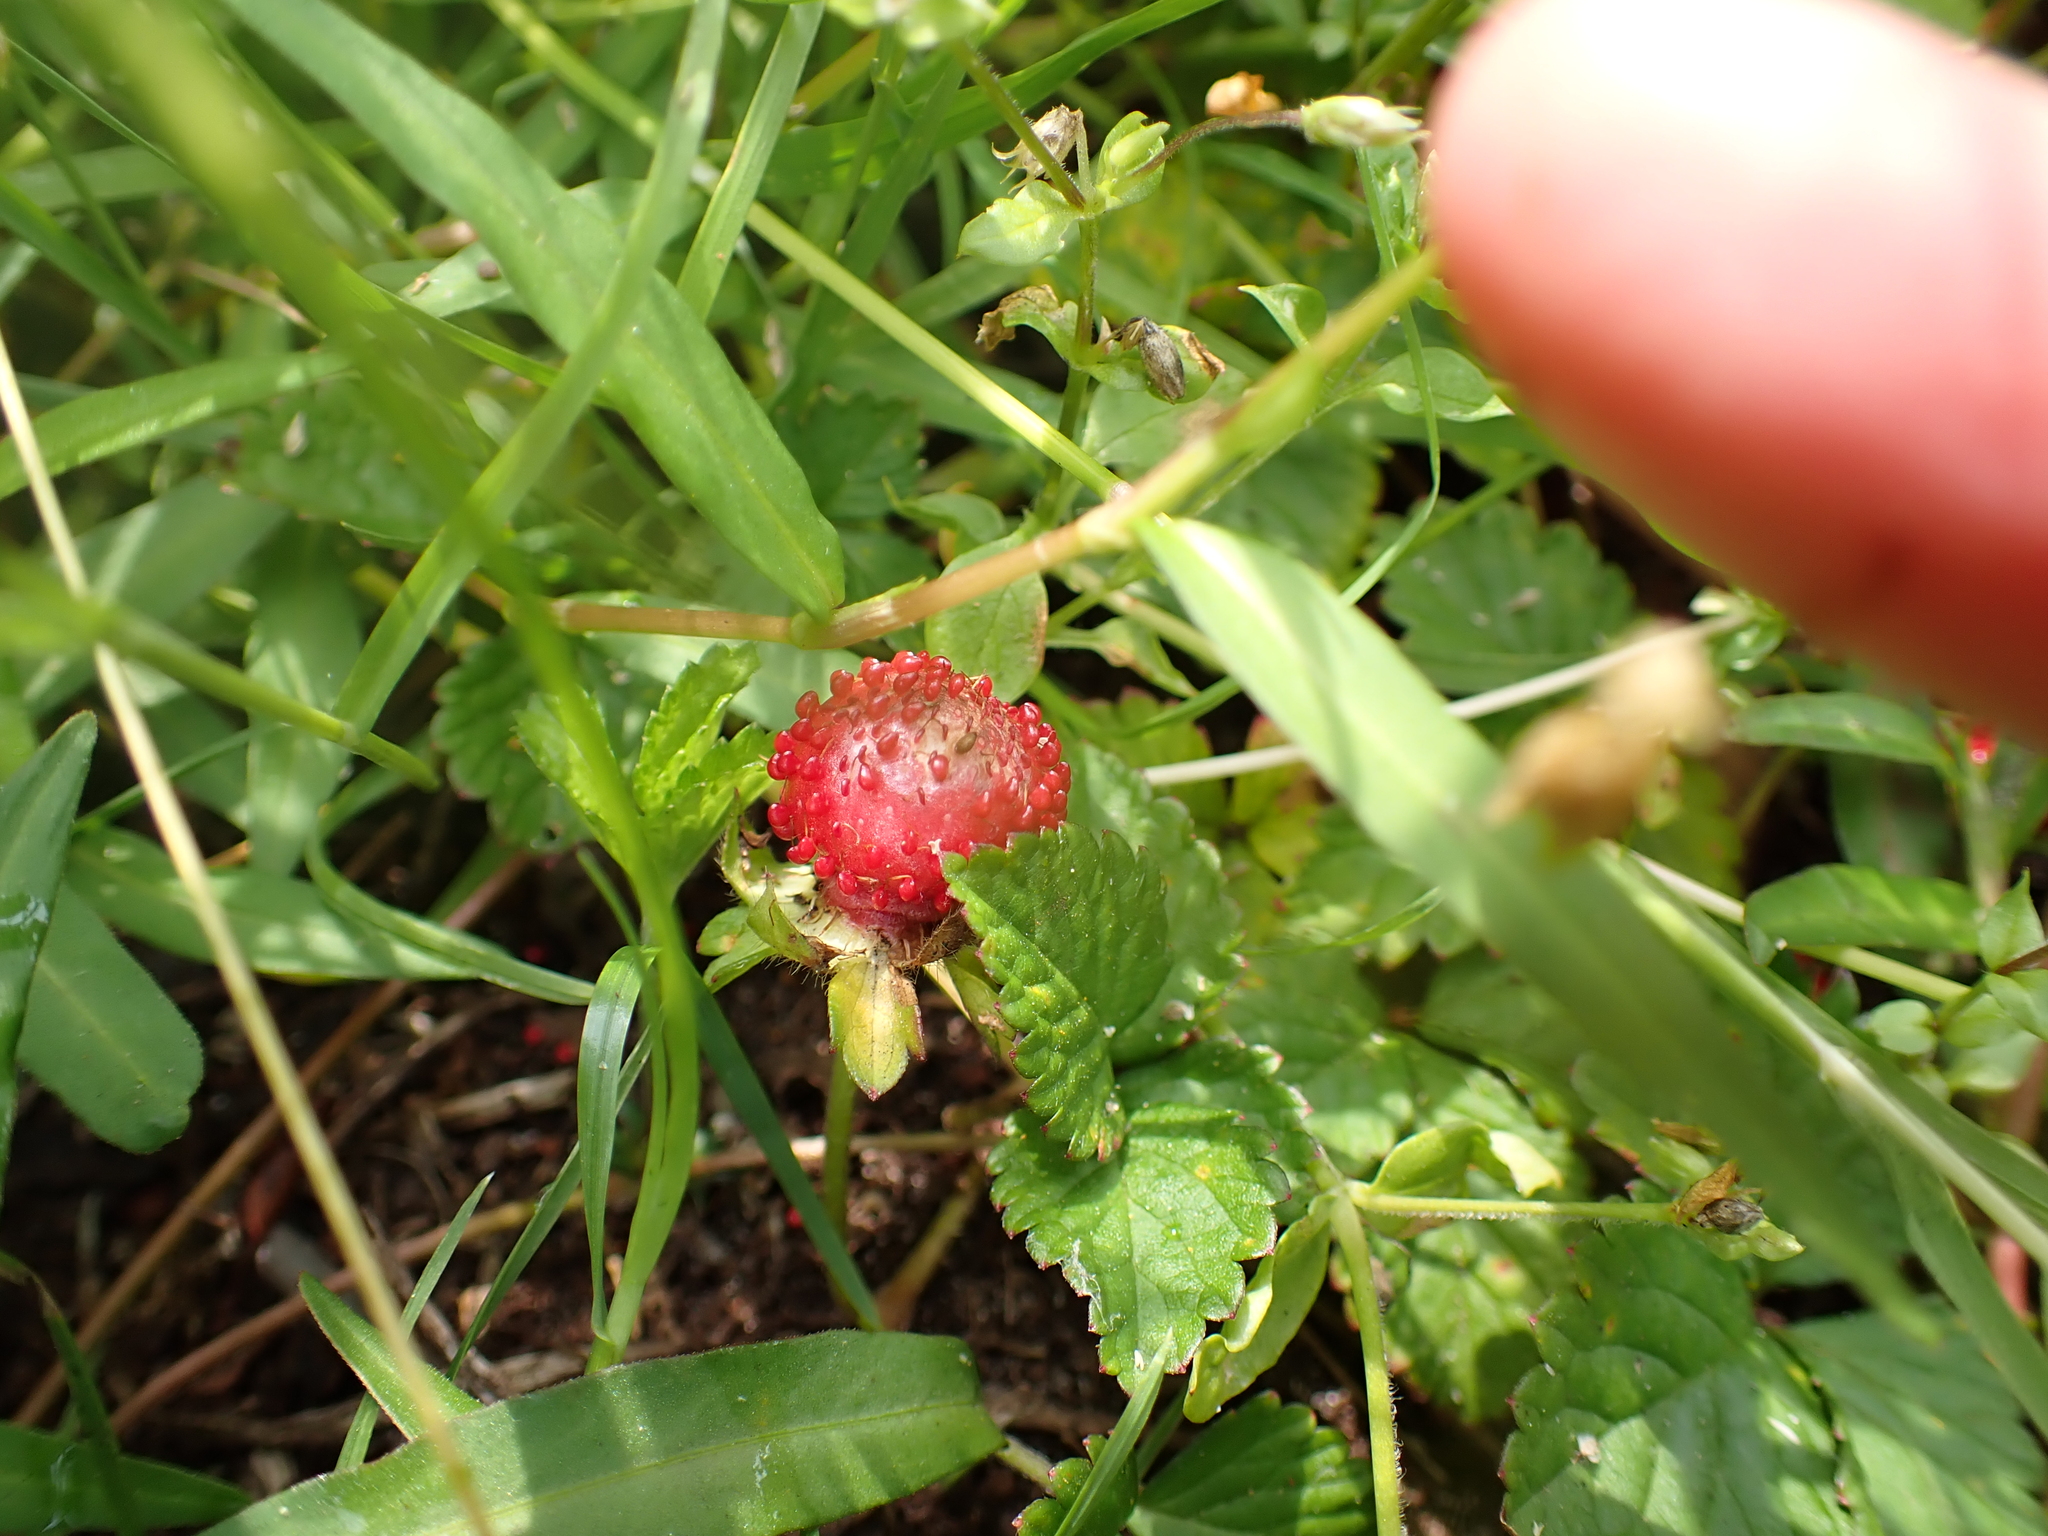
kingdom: Plantae
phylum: Tracheophyta
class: Magnoliopsida
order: Rosales
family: Rosaceae
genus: Potentilla
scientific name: Potentilla indica
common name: Yellow-flowered strawberry
